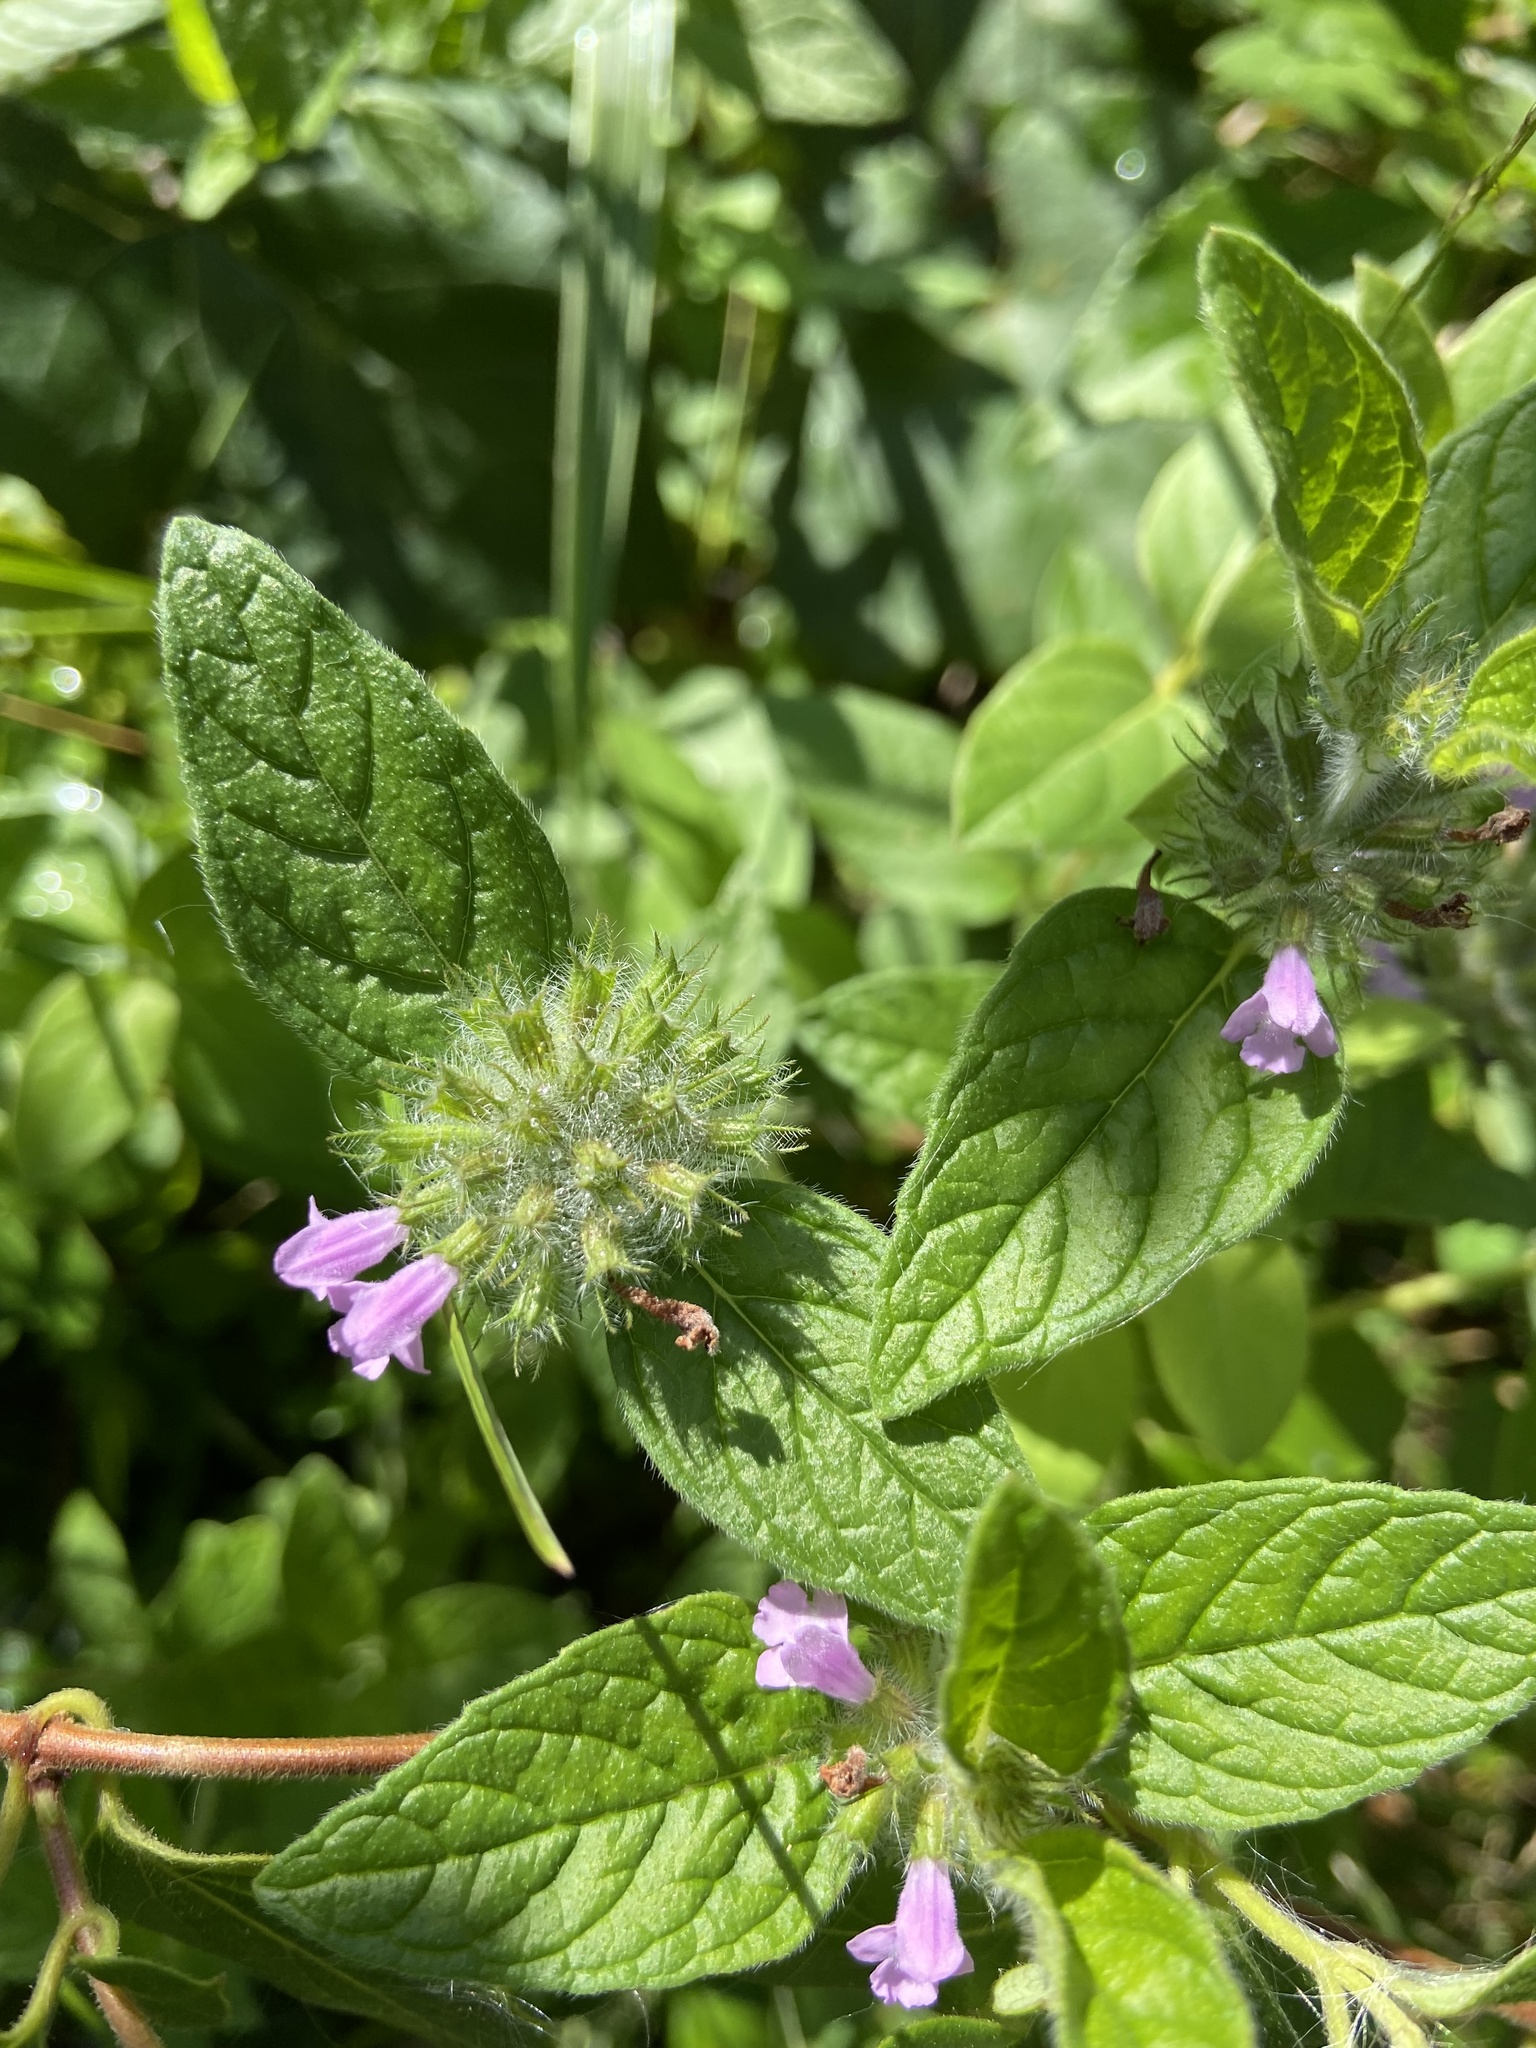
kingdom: Plantae
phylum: Tracheophyta
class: Magnoliopsida
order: Lamiales
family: Lamiaceae
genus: Clinopodium
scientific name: Clinopodium vulgare
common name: Wild basil
